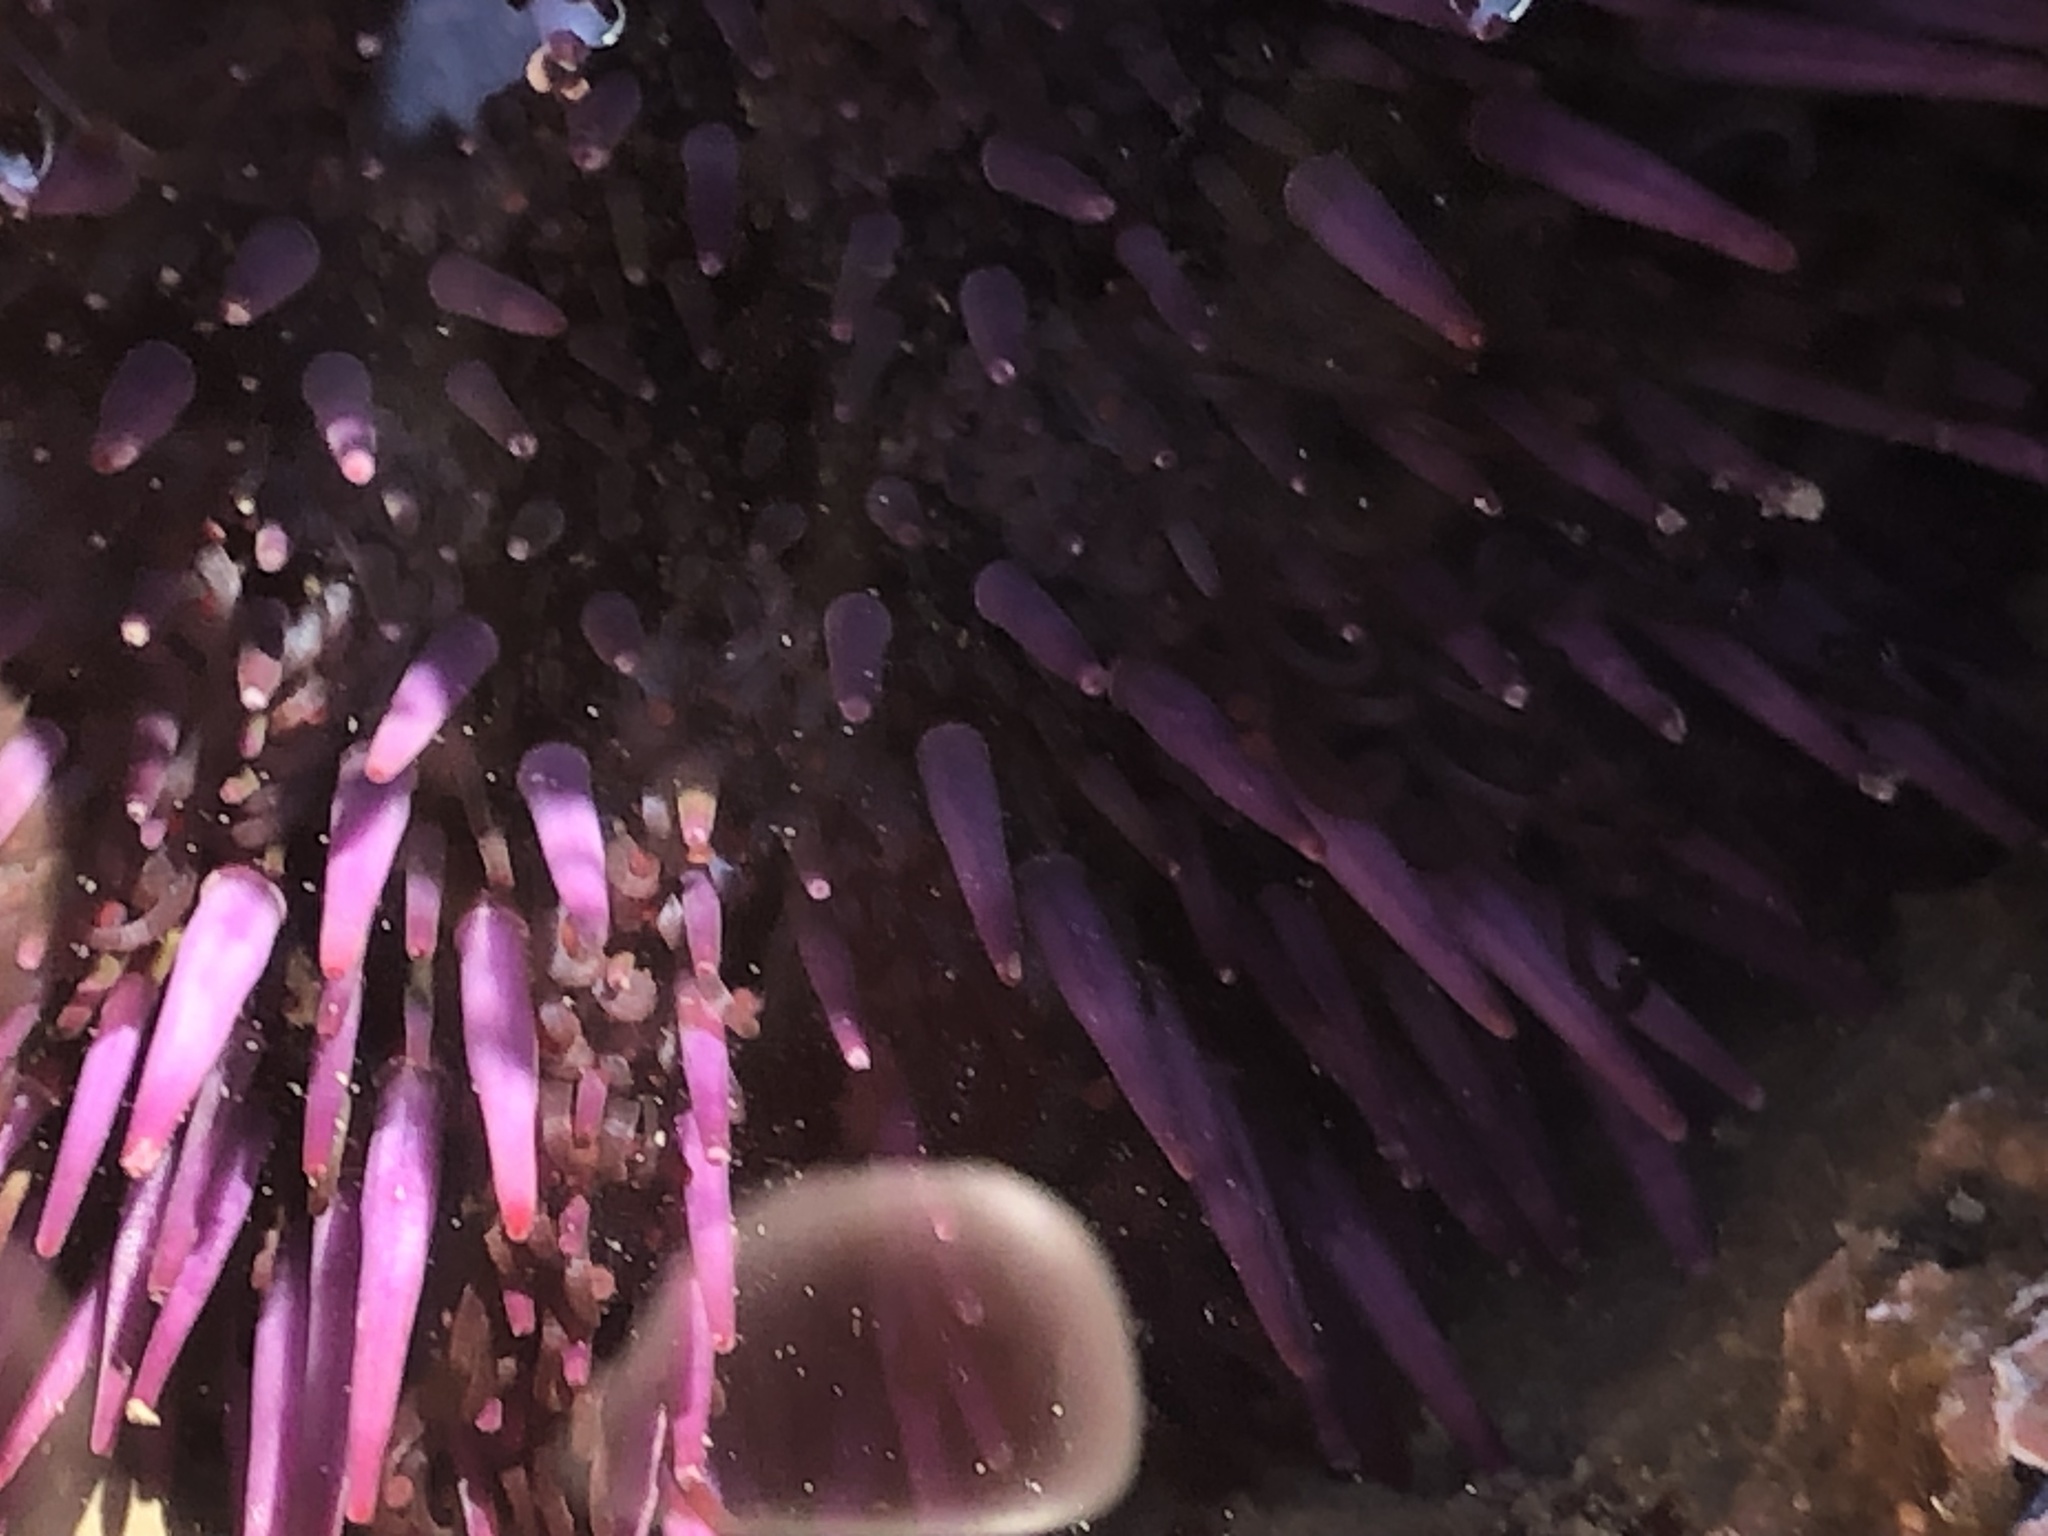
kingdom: Animalia
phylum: Echinodermata
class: Echinoidea
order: Camarodonta
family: Strongylocentrotidae
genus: Strongylocentrotus
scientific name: Strongylocentrotus purpuratus
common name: Purple sea urchin
